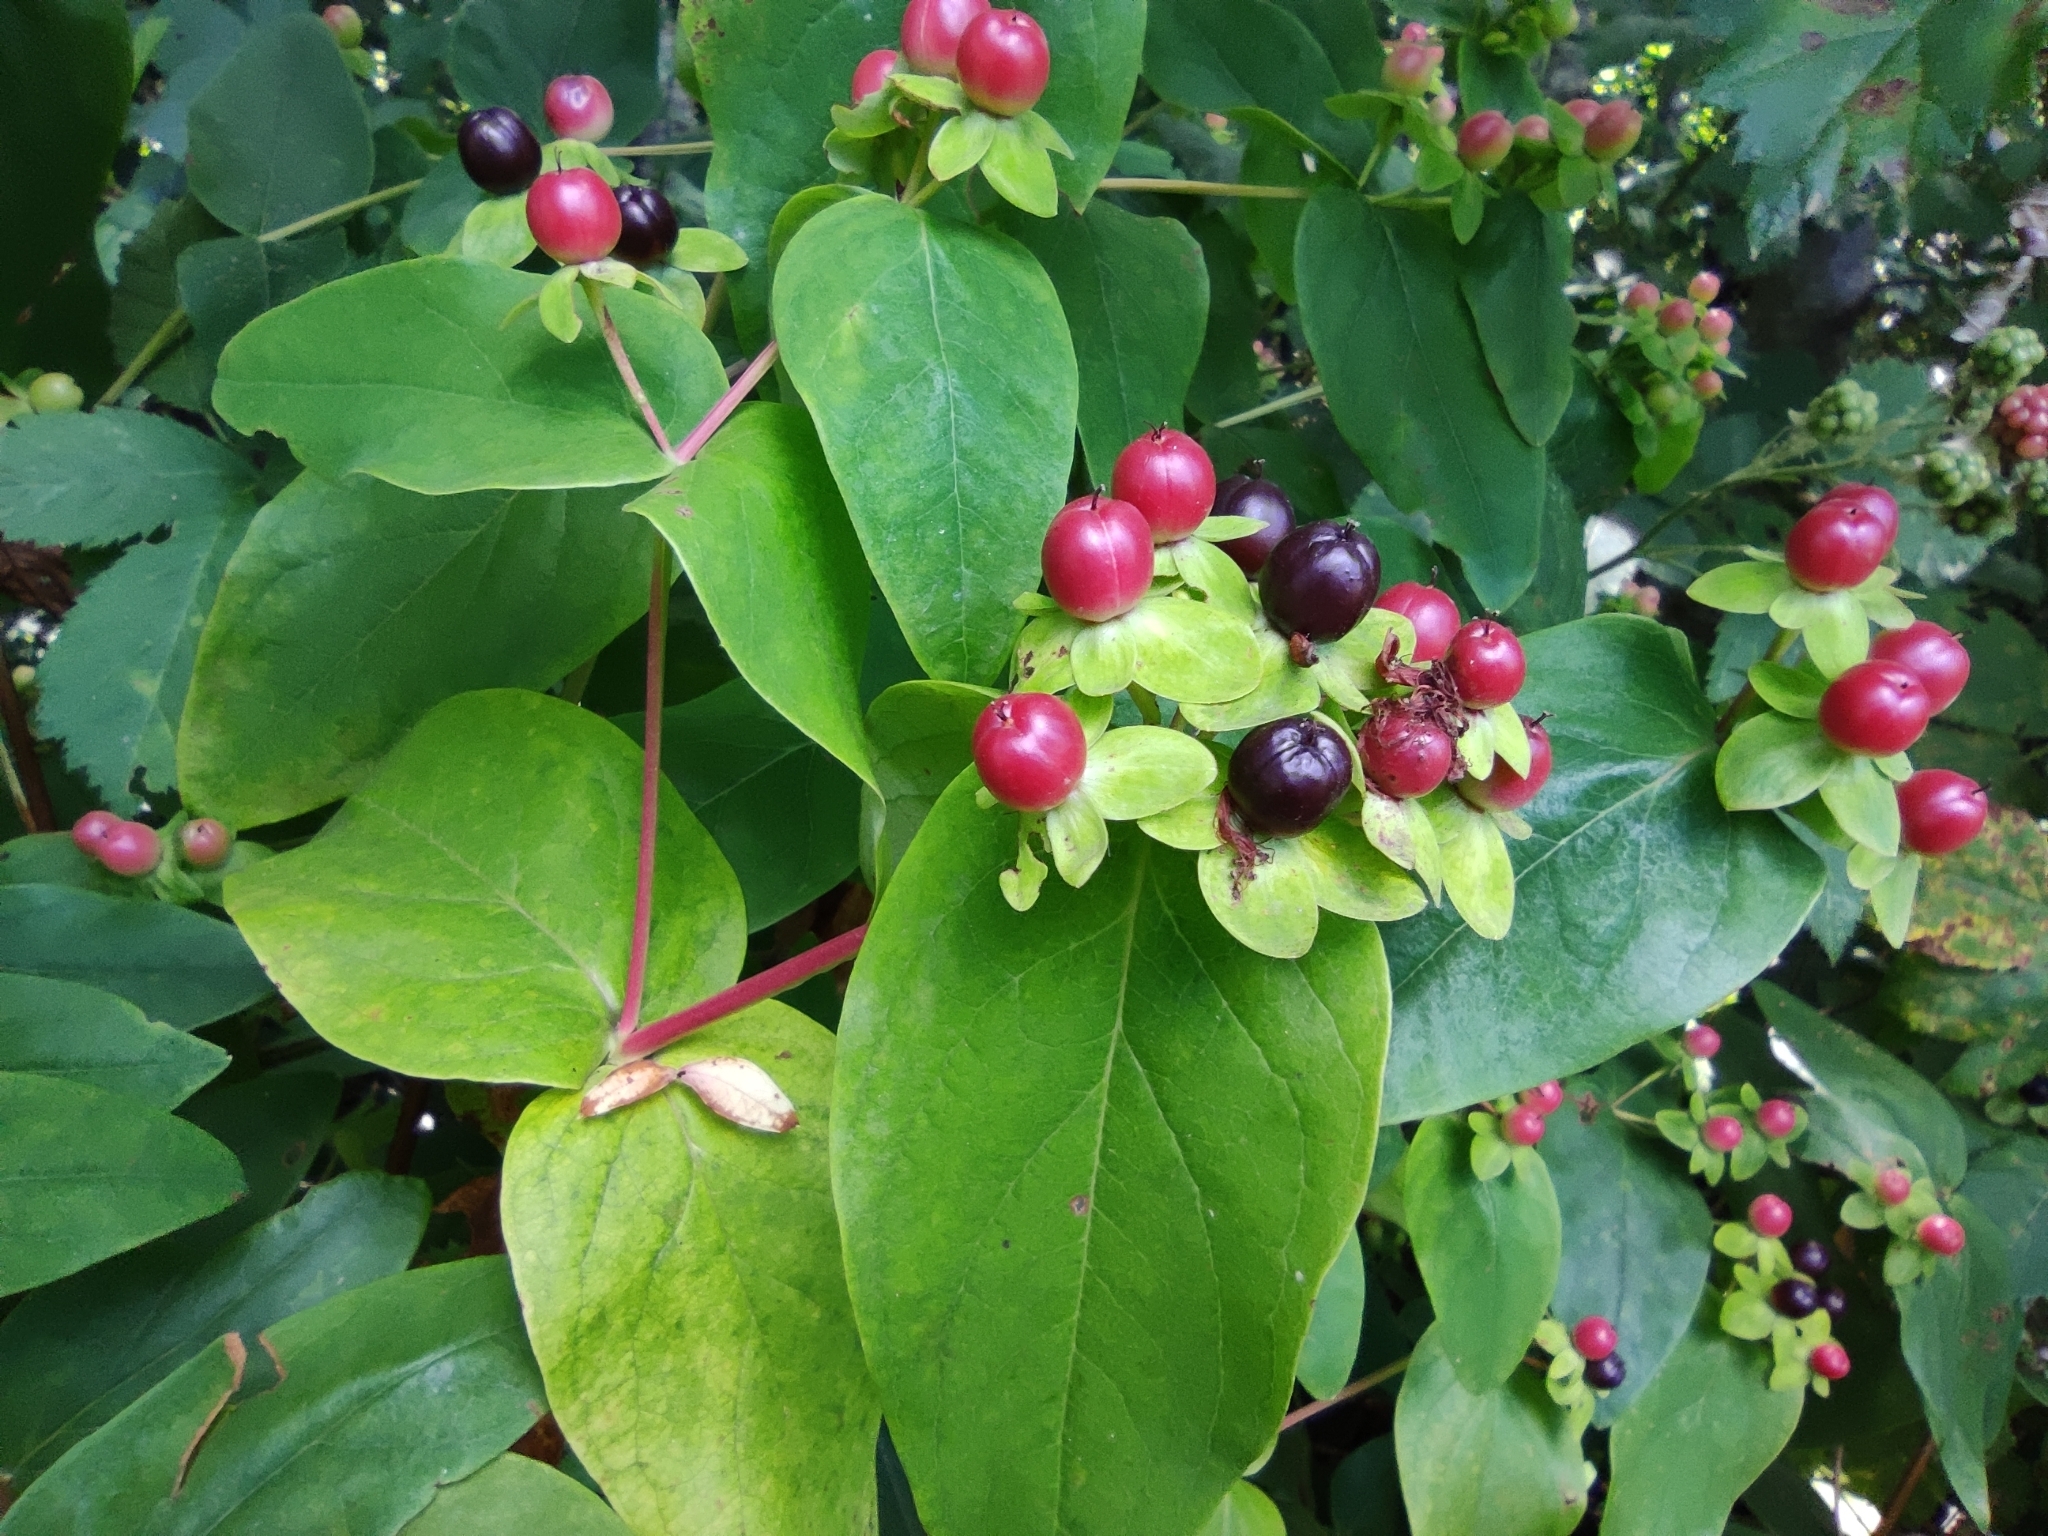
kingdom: Plantae
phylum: Tracheophyta
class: Magnoliopsida
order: Malpighiales
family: Hypericaceae
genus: Hypericum
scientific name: Hypericum androsaemum
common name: Sweet-amber
